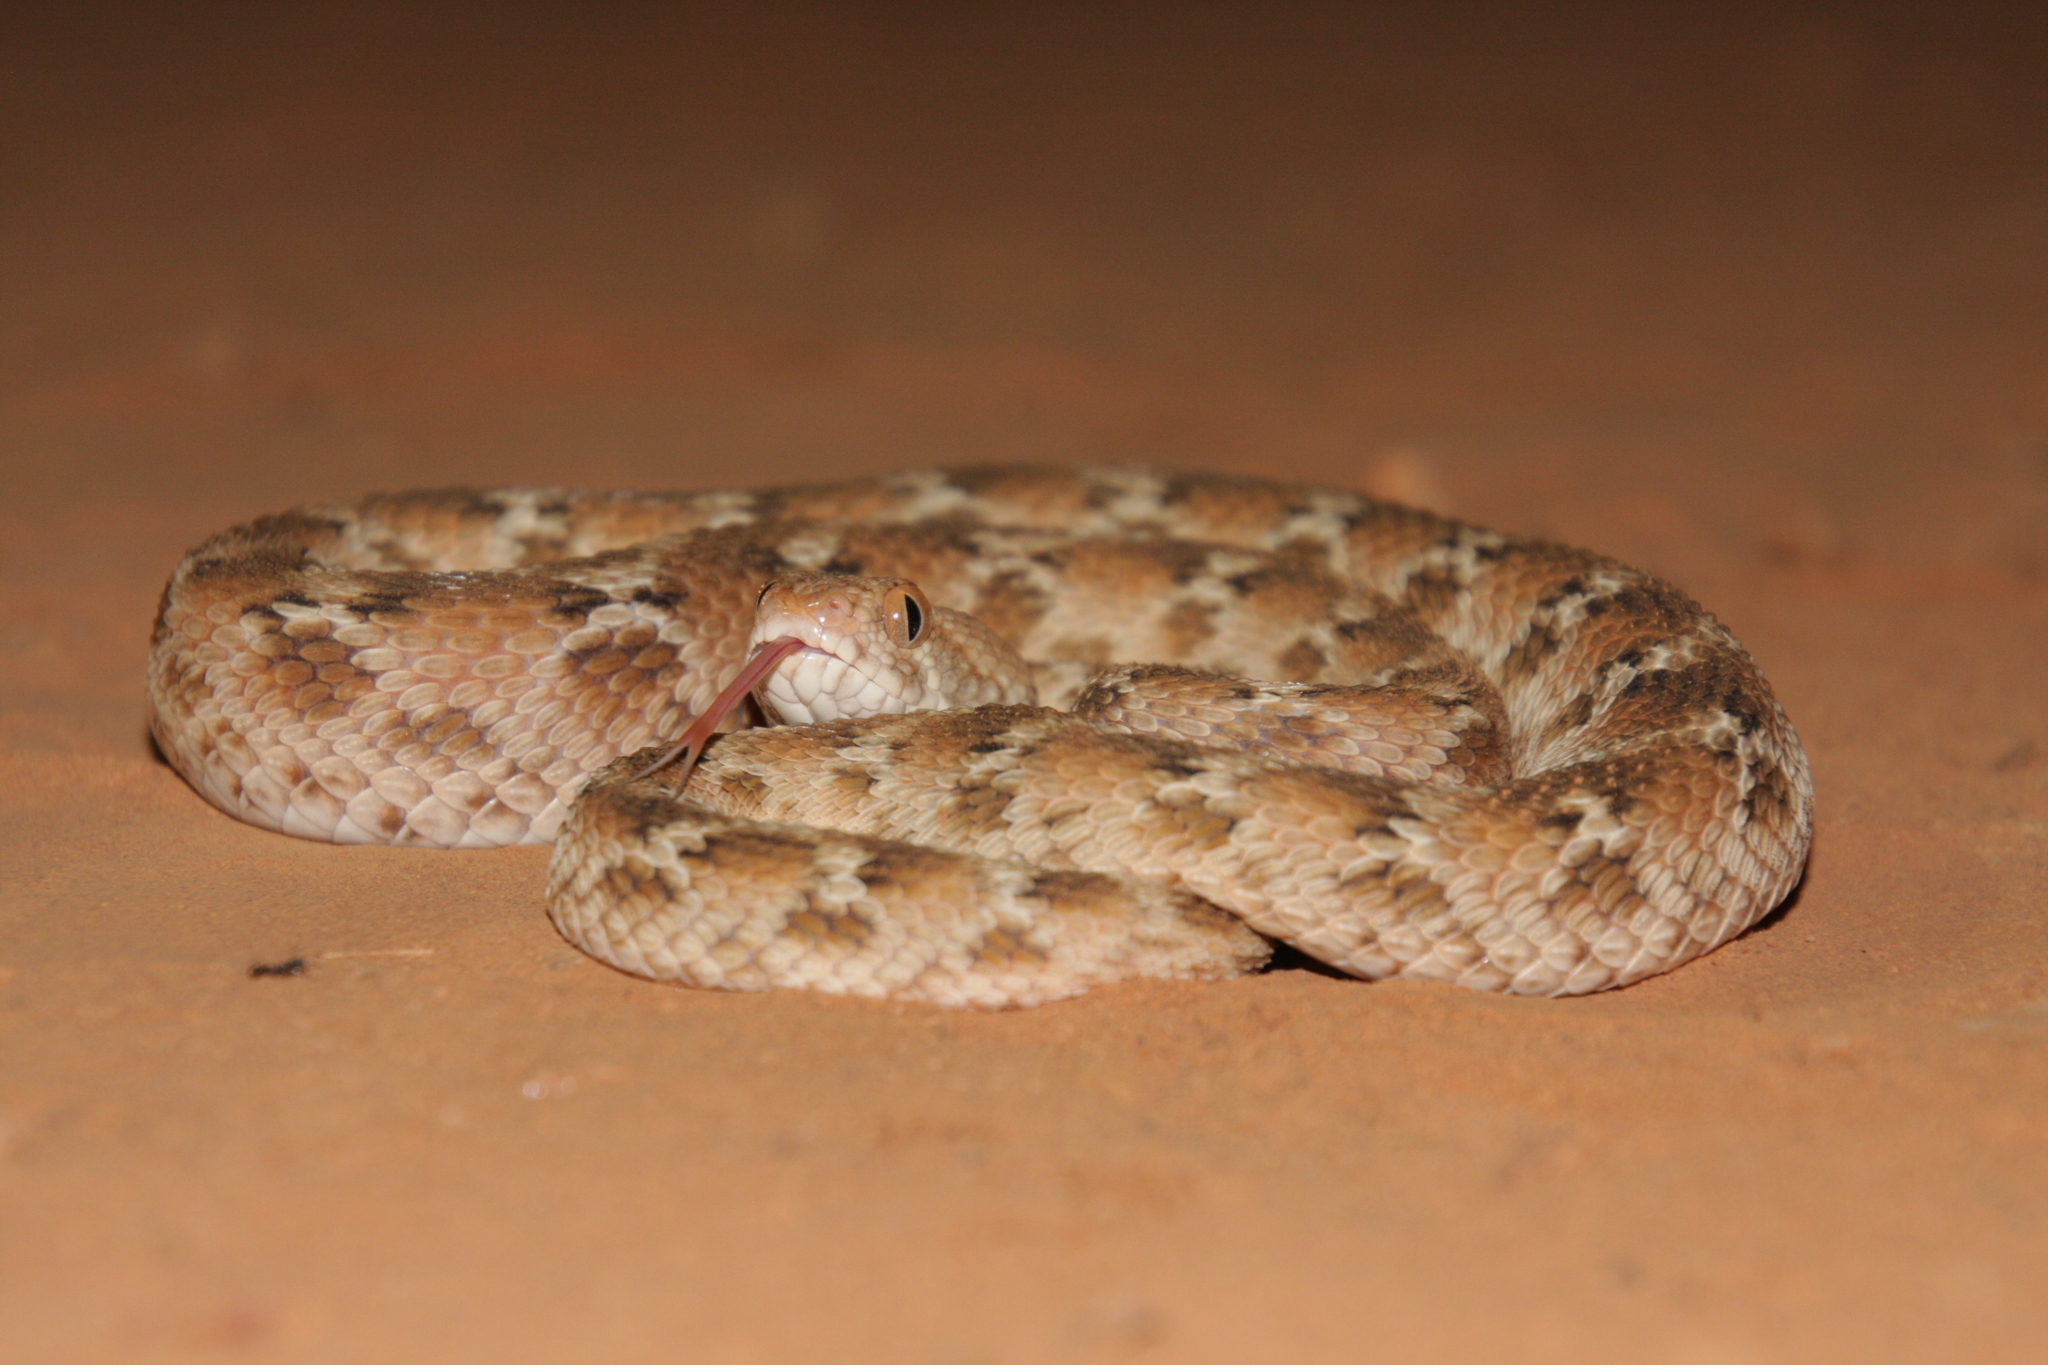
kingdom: Animalia
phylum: Chordata
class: Squamata
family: Viperidae
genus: Echis
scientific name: Echis leucogaster
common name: White-bellied carpet viper
